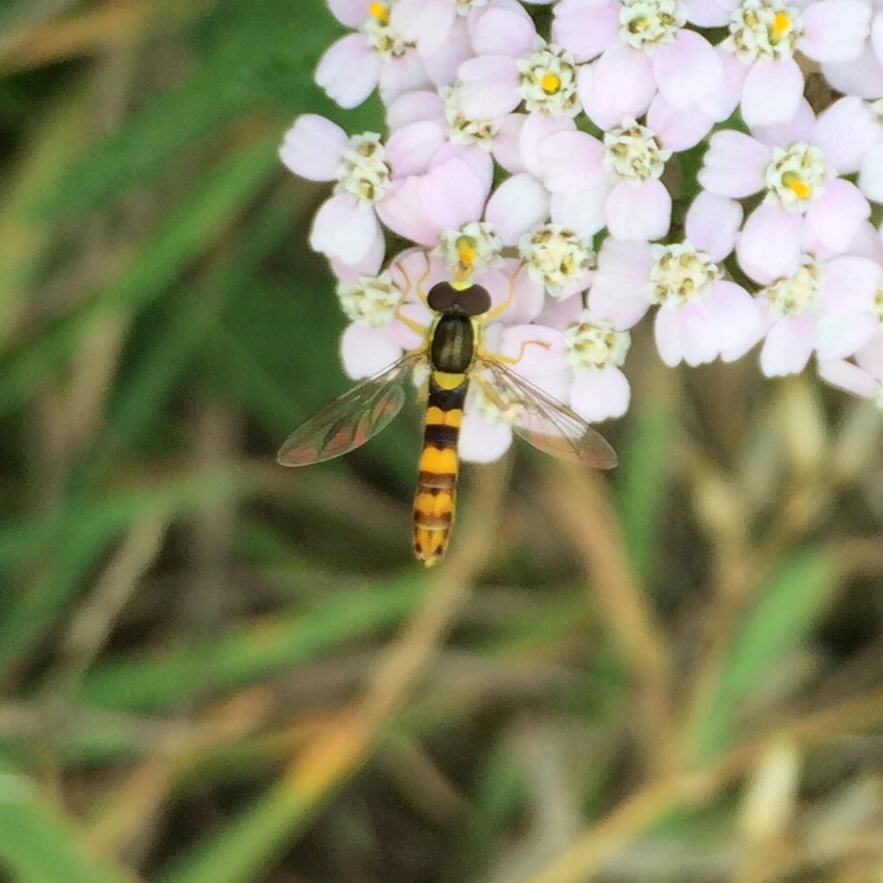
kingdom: Animalia
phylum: Arthropoda
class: Insecta
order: Diptera
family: Syrphidae
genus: Sphaerophoria
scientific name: Sphaerophoria scripta
